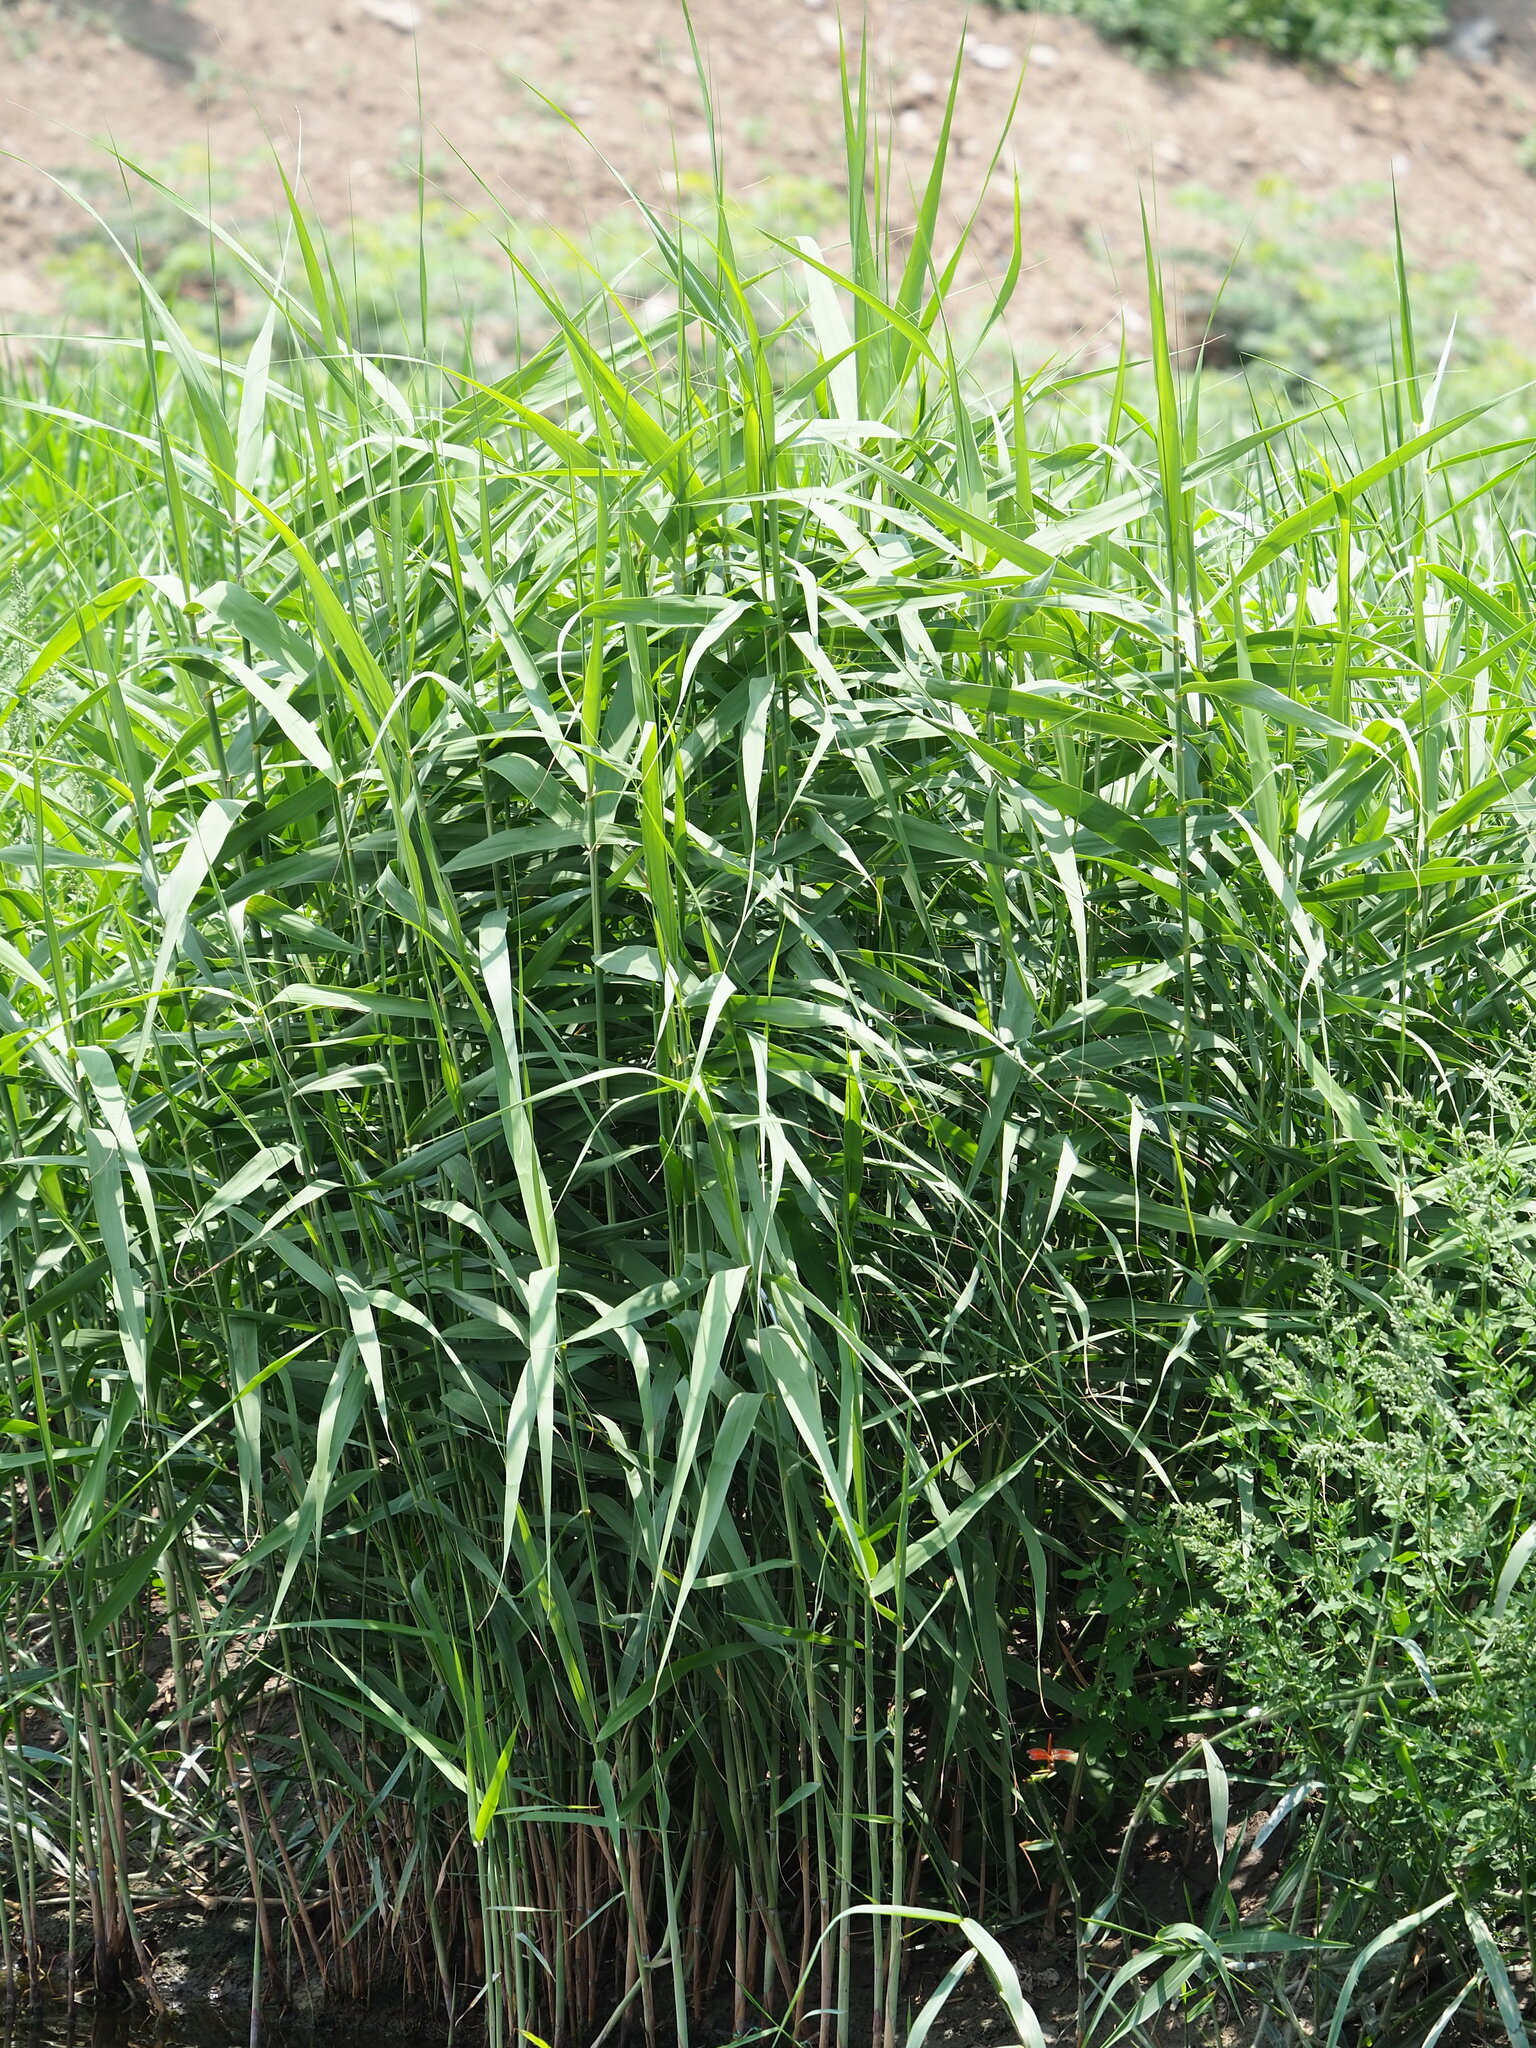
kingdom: Plantae
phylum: Tracheophyta
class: Liliopsida
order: Poales
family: Poaceae
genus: Phragmites
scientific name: Phragmites australis
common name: Common reed
